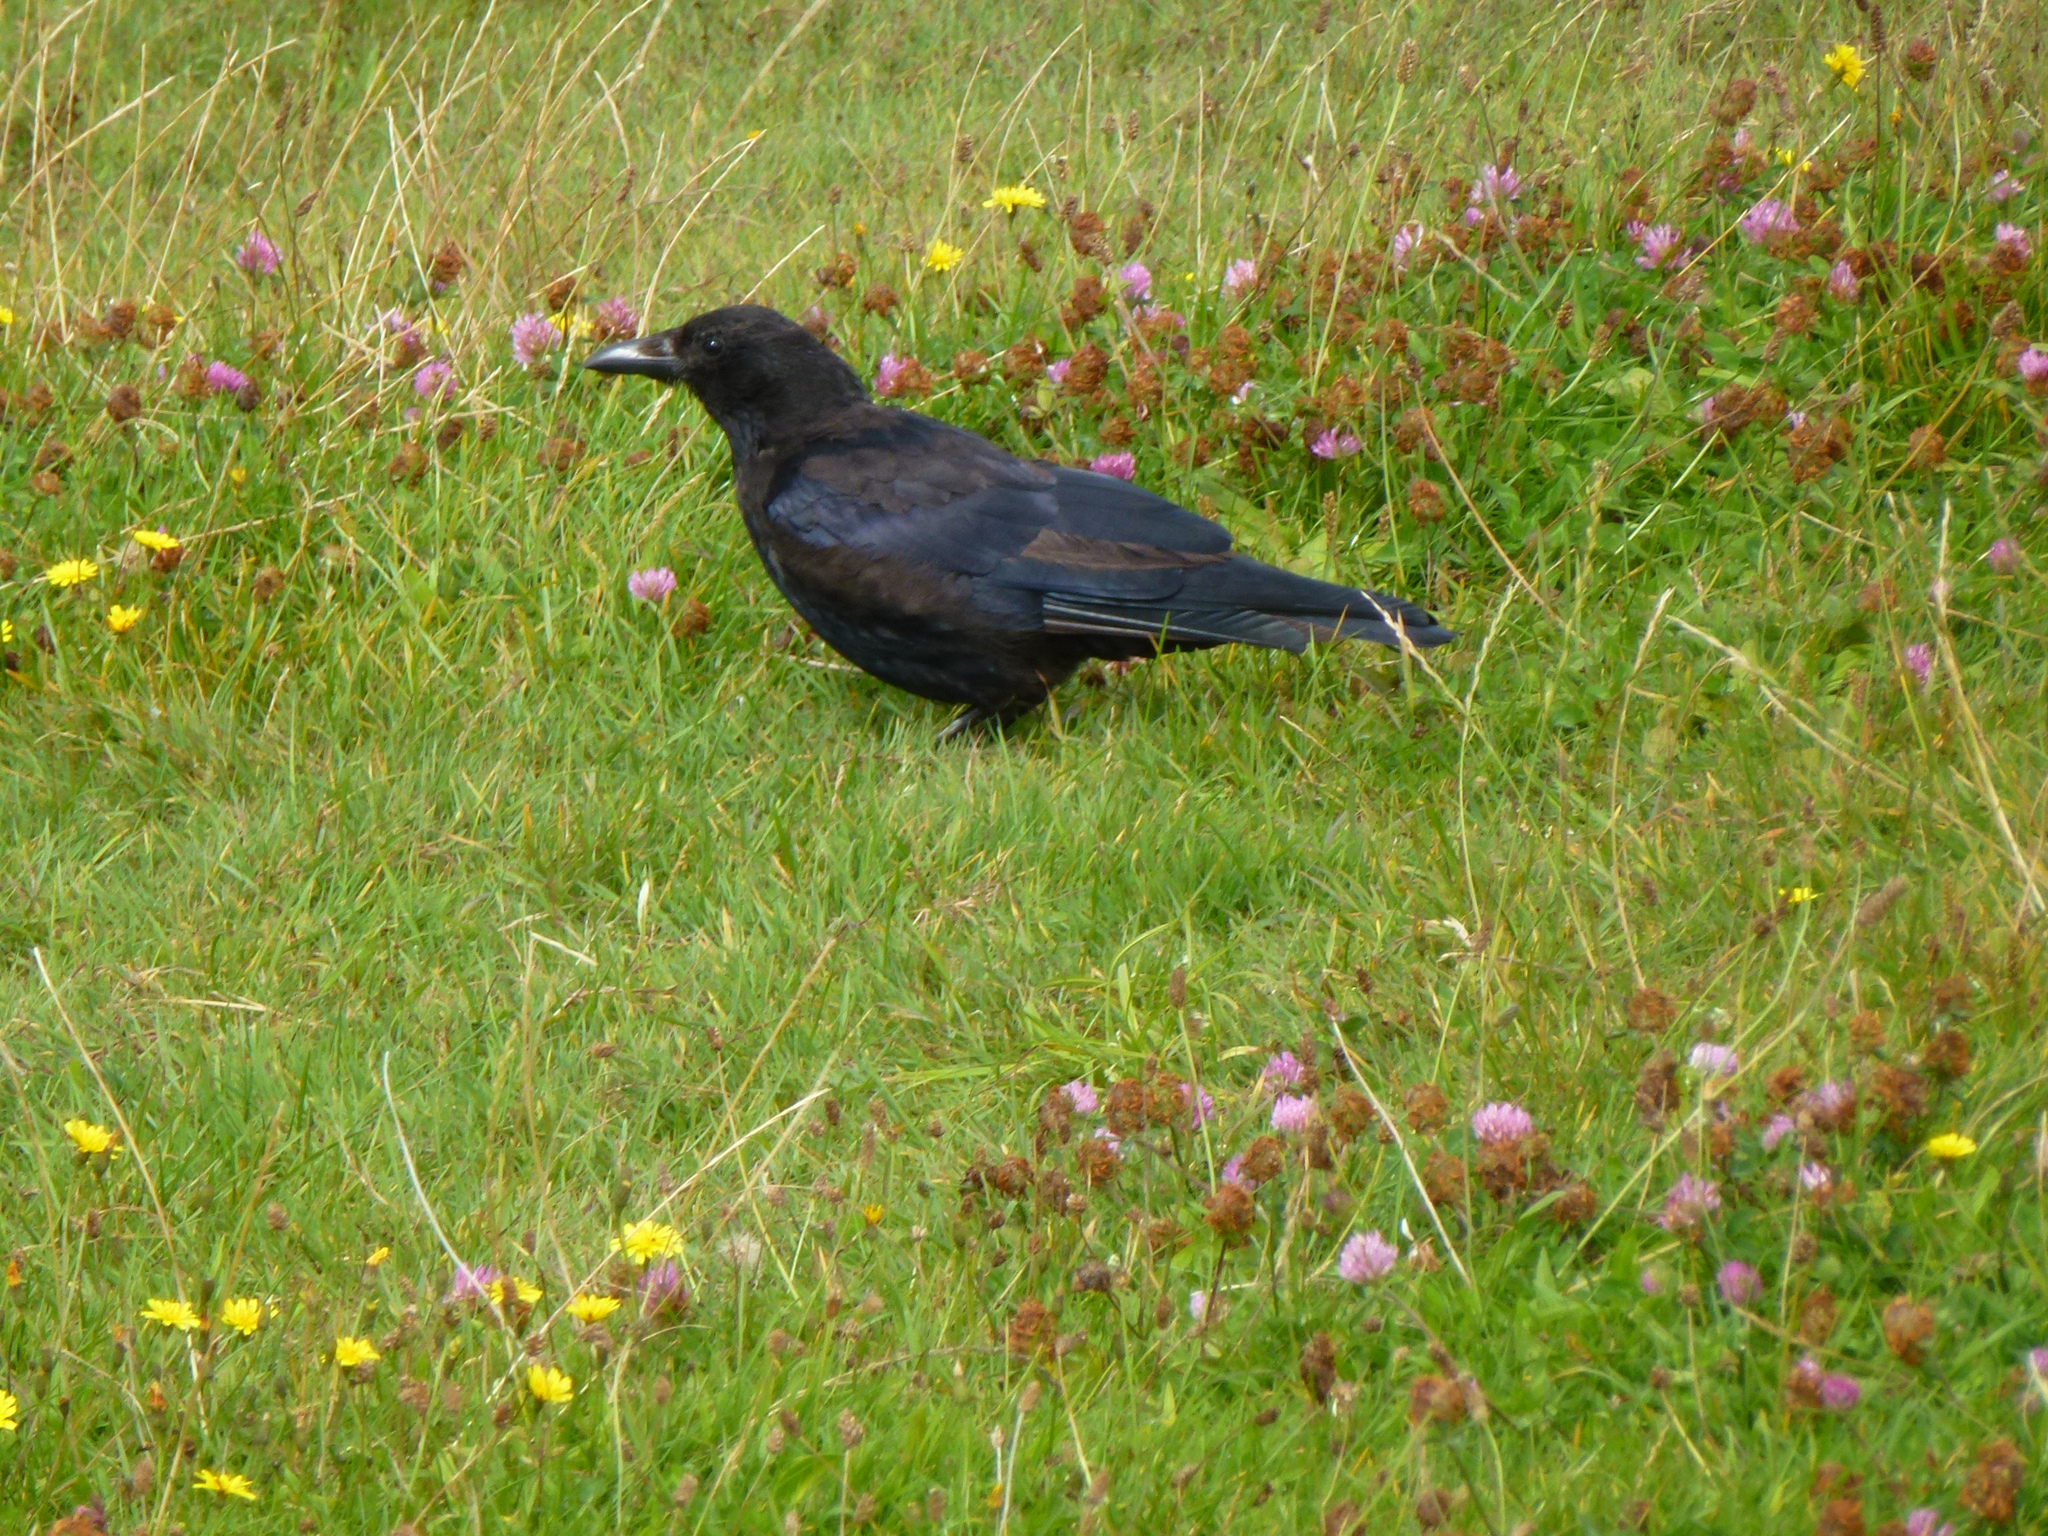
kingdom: Animalia
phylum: Chordata
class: Aves
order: Passeriformes
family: Corvidae
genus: Corvus
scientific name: Corvus corone
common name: Carrion crow
